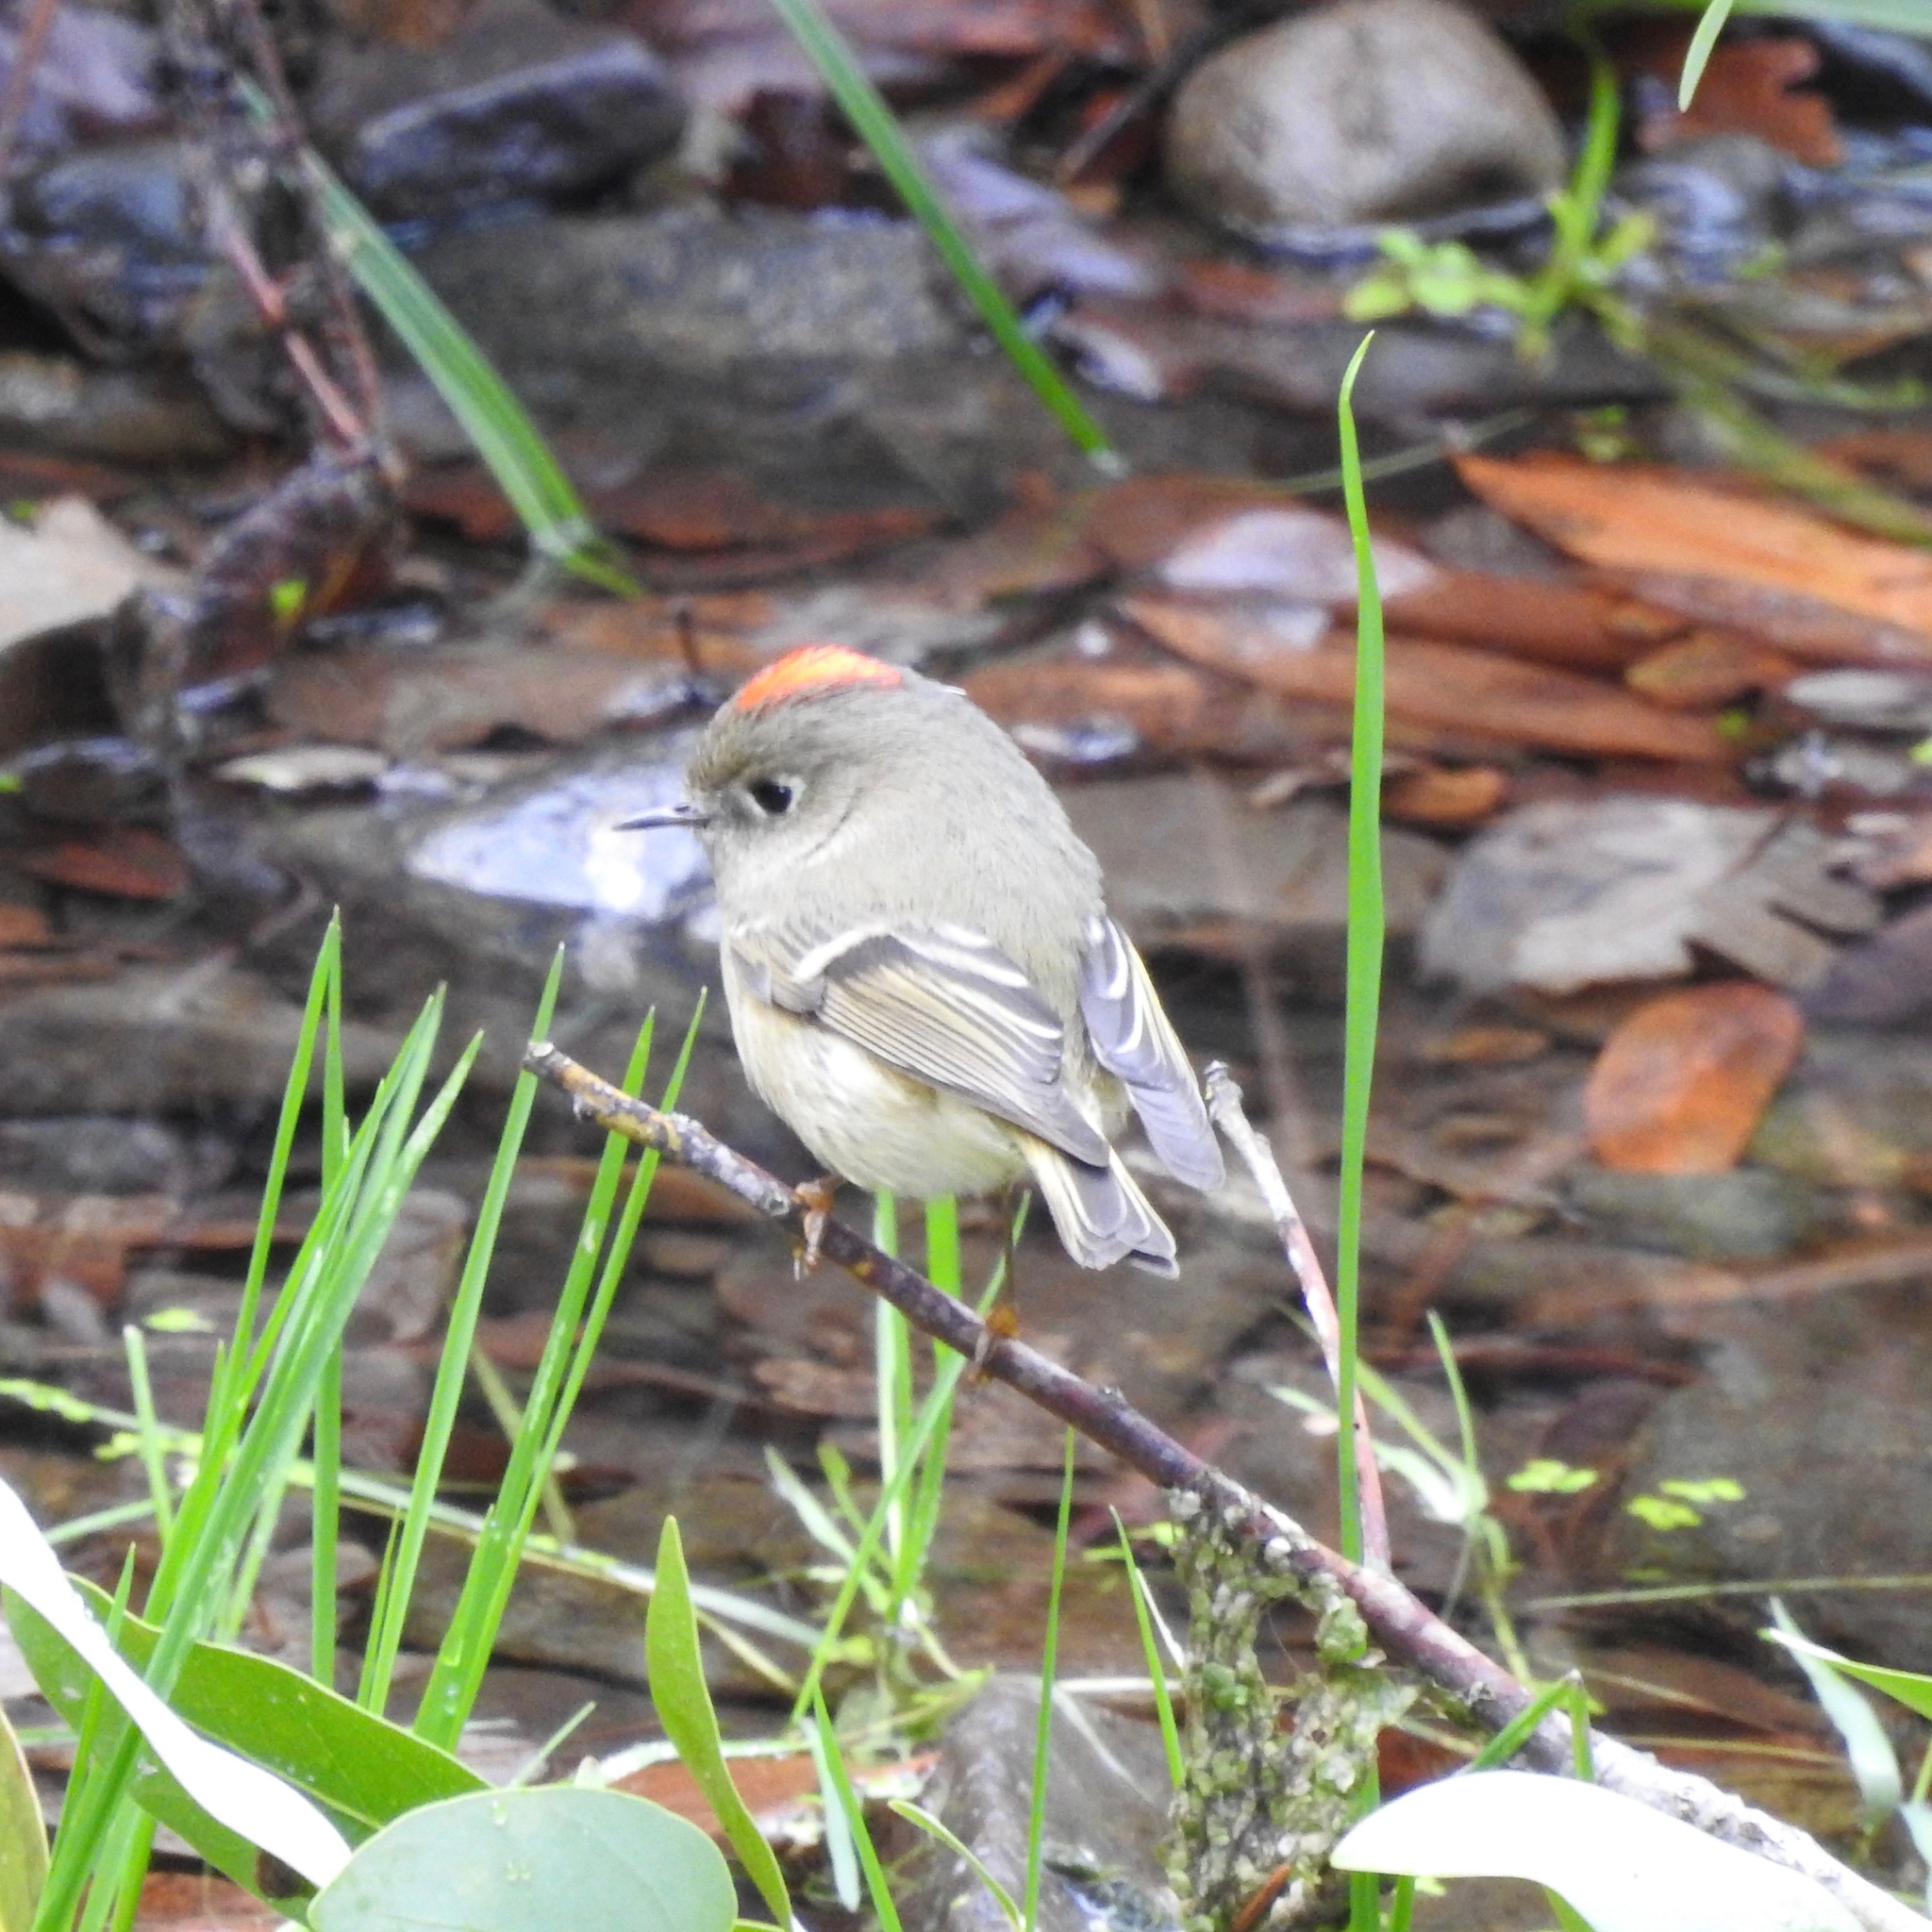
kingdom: Animalia
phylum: Chordata
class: Aves
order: Passeriformes
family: Regulidae
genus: Regulus
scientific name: Regulus calendula
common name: Ruby-crowned kinglet
